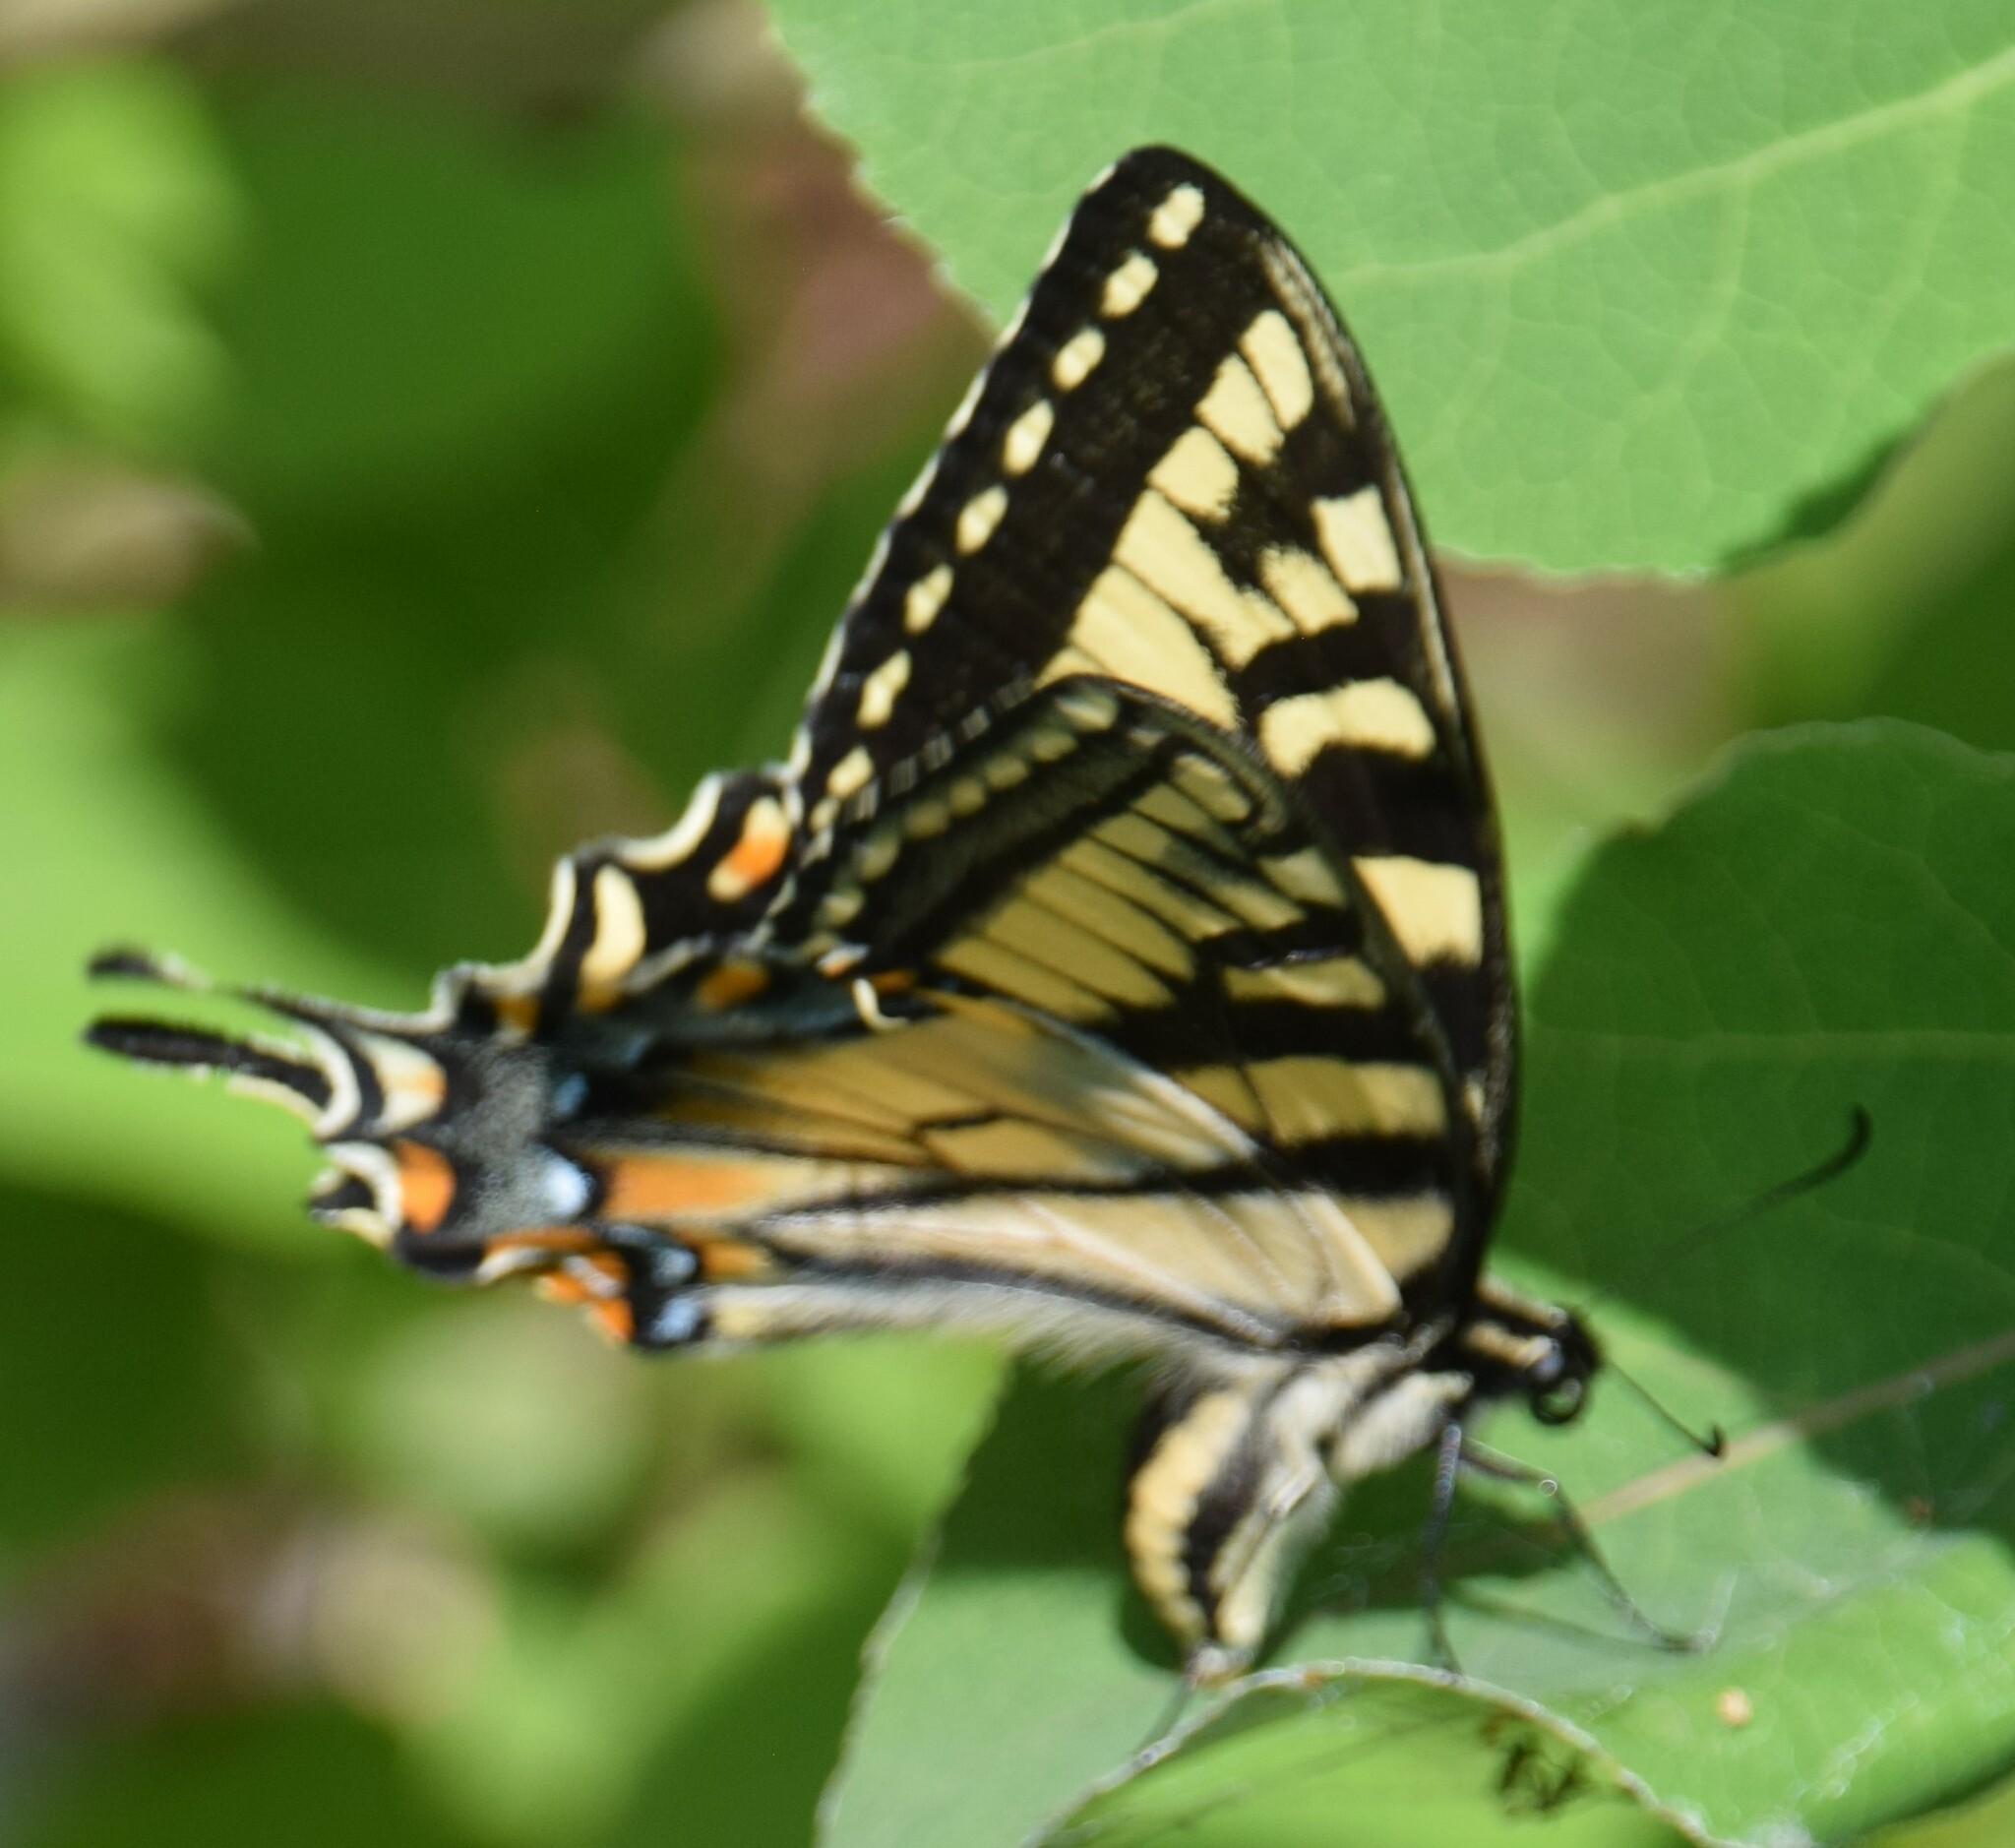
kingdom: Animalia
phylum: Arthropoda
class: Insecta
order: Lepidoptera
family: Papilionidae
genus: Papilio
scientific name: Papilio canadensis
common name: Canadian tiger swallowtail
